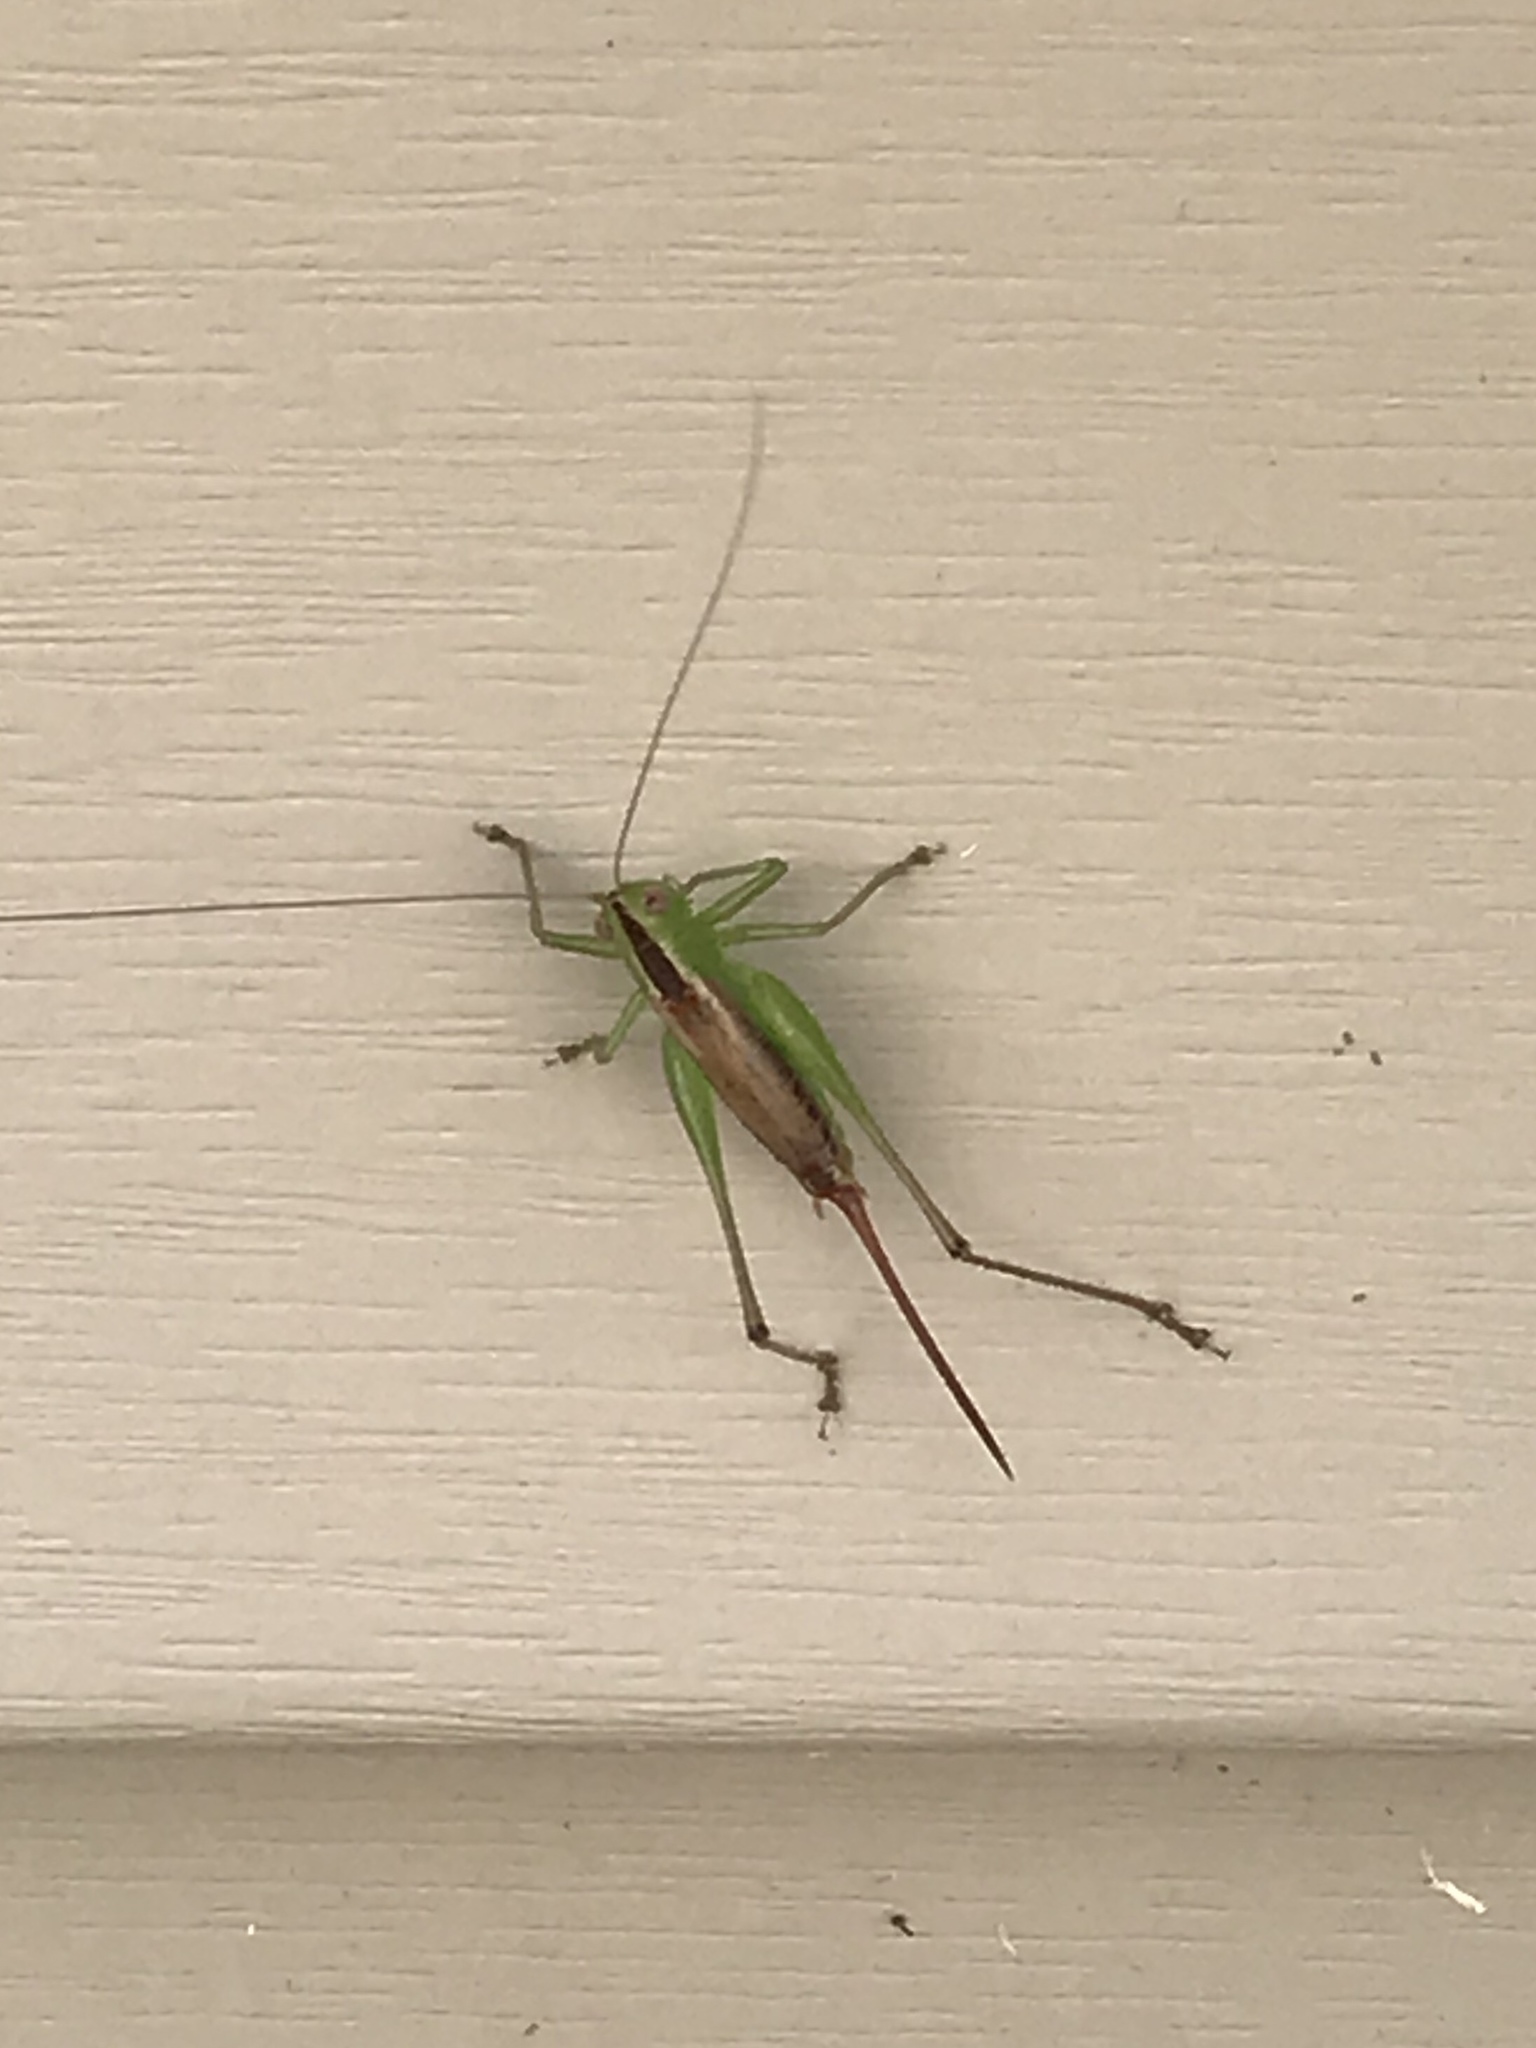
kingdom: Animalia
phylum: Arthropoda
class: Insecta
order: Orthoptera
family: Tettigoniidae
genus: Conocephalus
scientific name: Conocephalus brevipennis
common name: Short-winged meadow katydid
